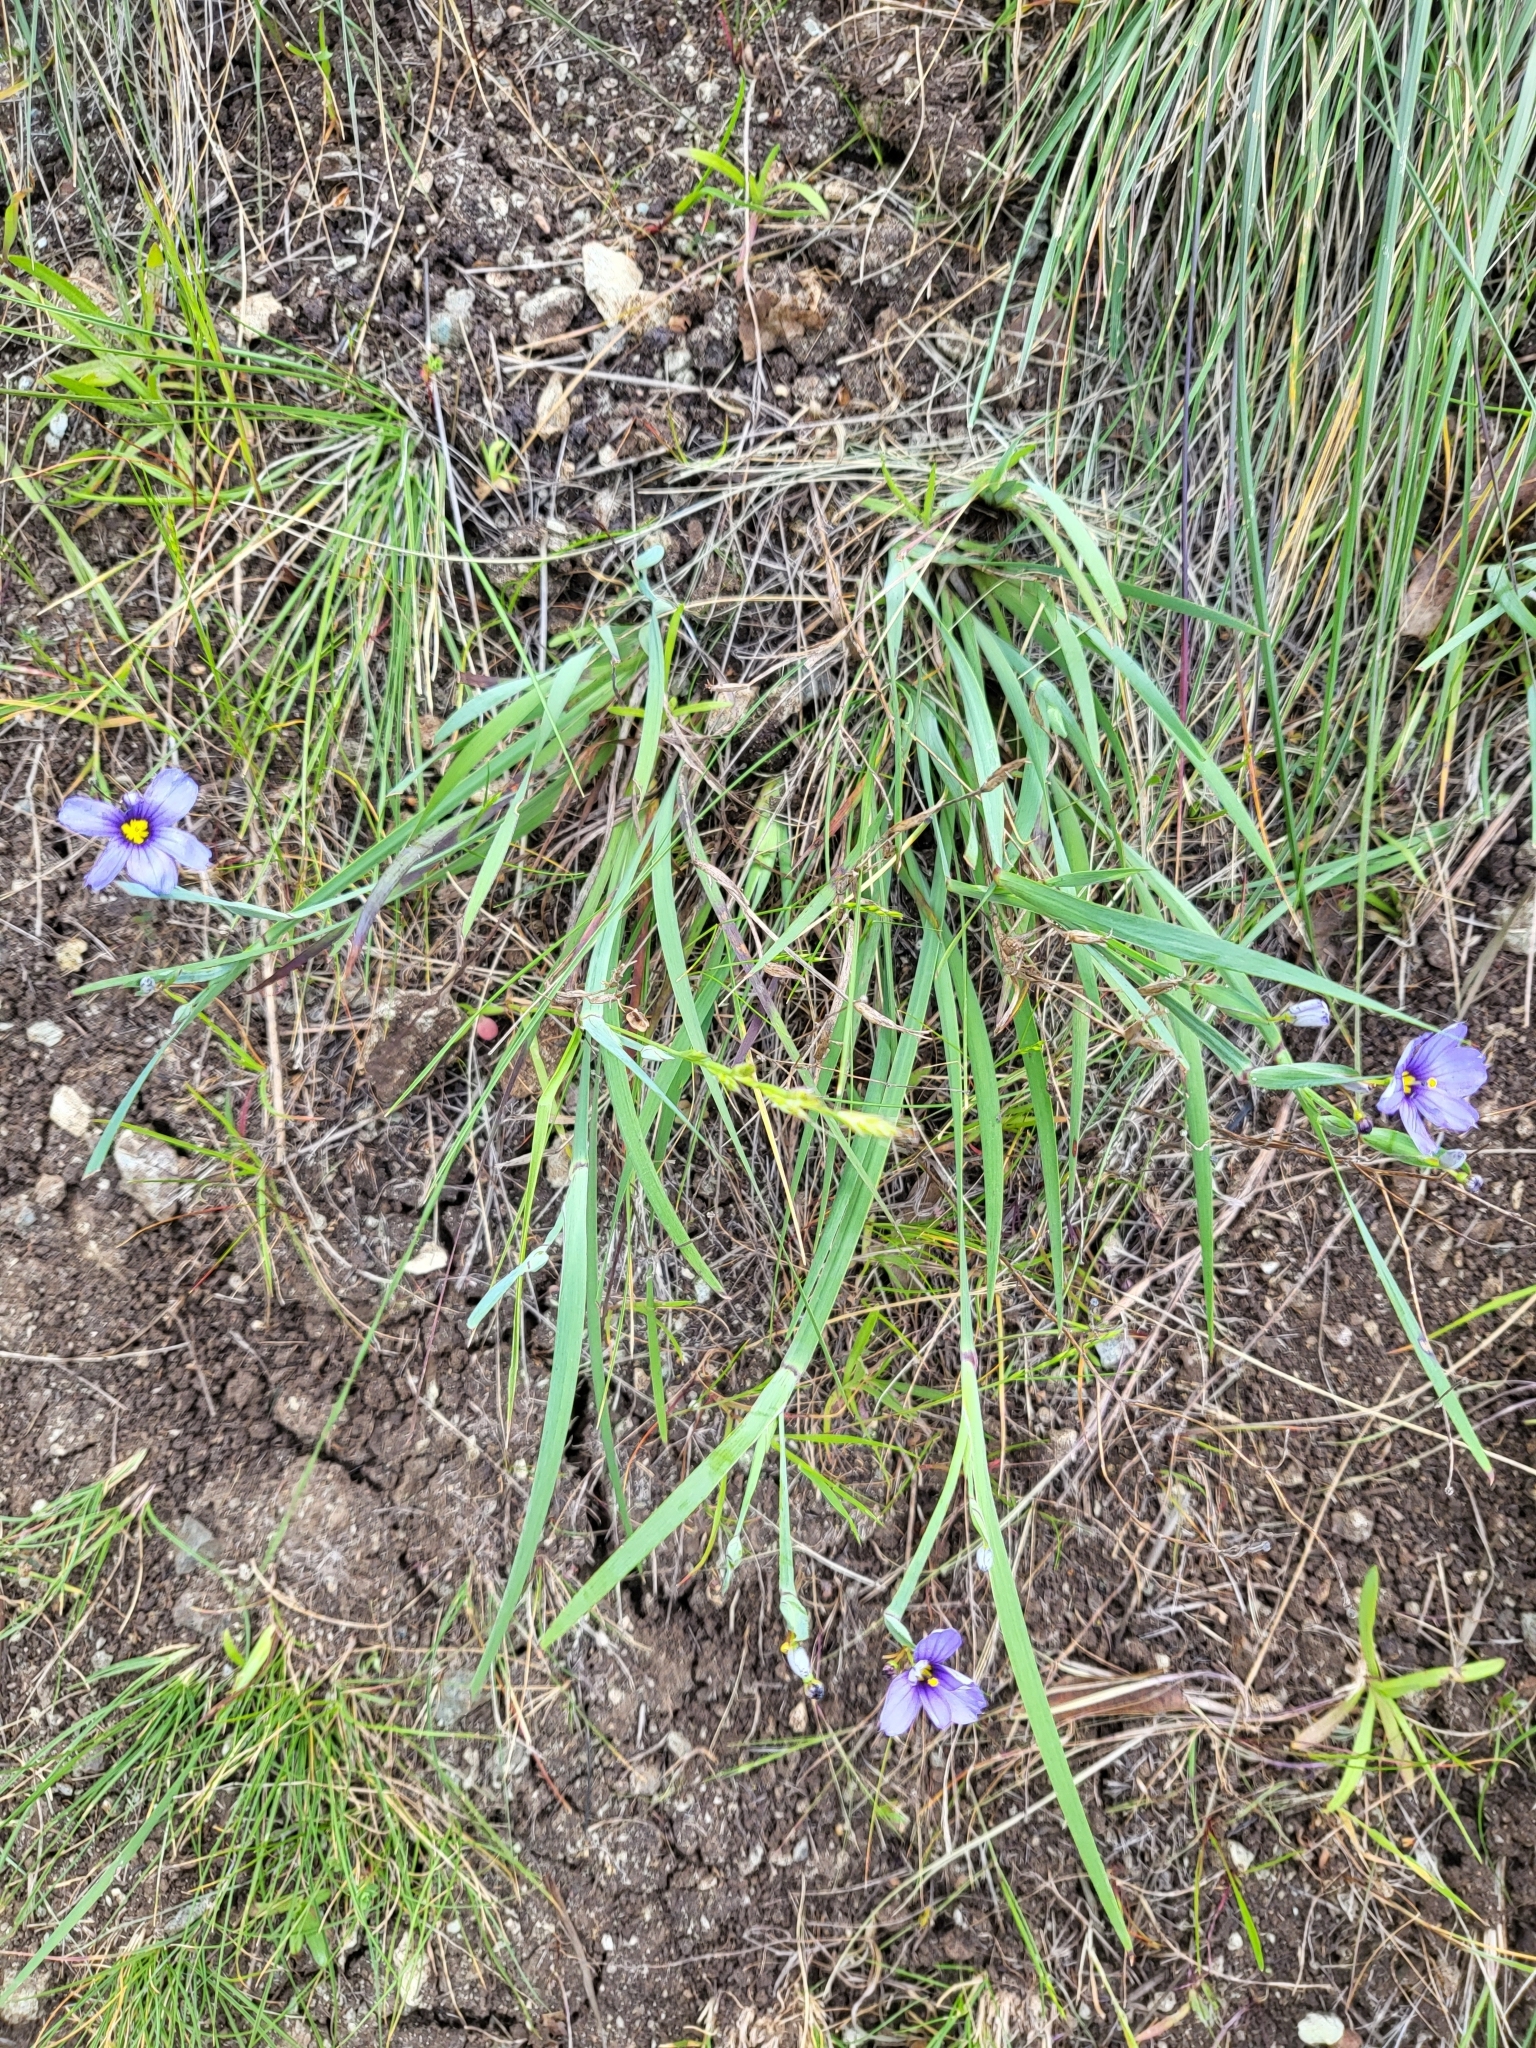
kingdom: Plantae
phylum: Tracheophyta
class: Liliopsida
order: Asparagales
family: Iridaceae
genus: Sisyrinchium
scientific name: Sisyrinchium bellum
